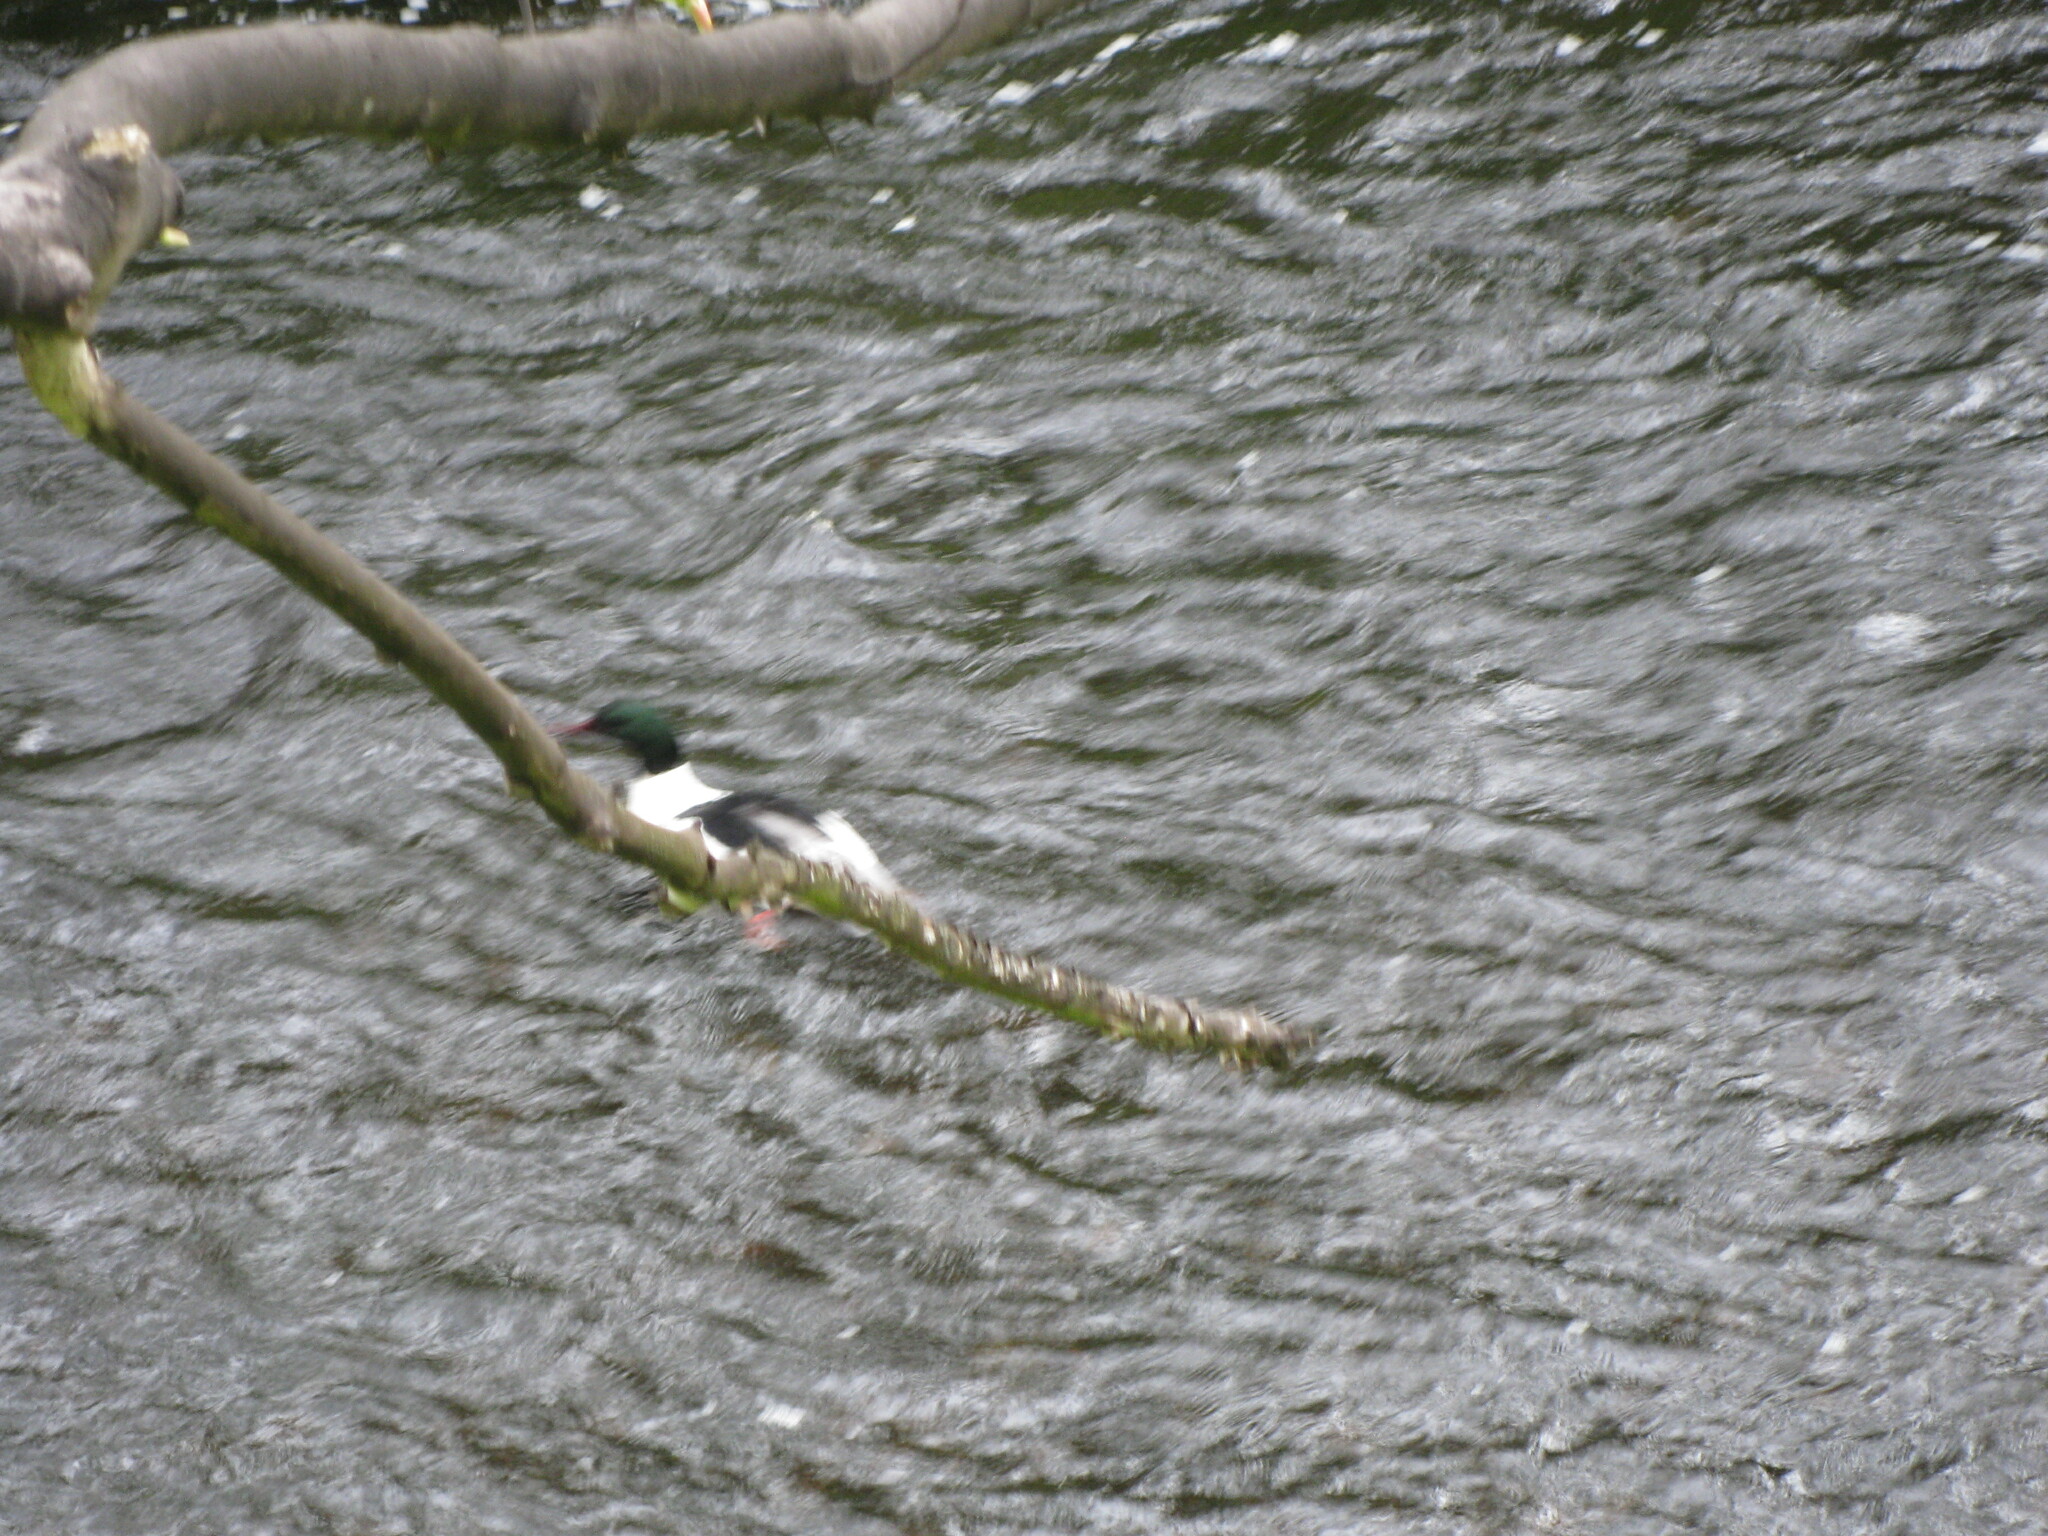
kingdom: Animalia
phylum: Chordata
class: Aves
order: Anseriformes
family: Anatidae
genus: Mergus
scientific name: Mergus merganser
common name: Common merganser
